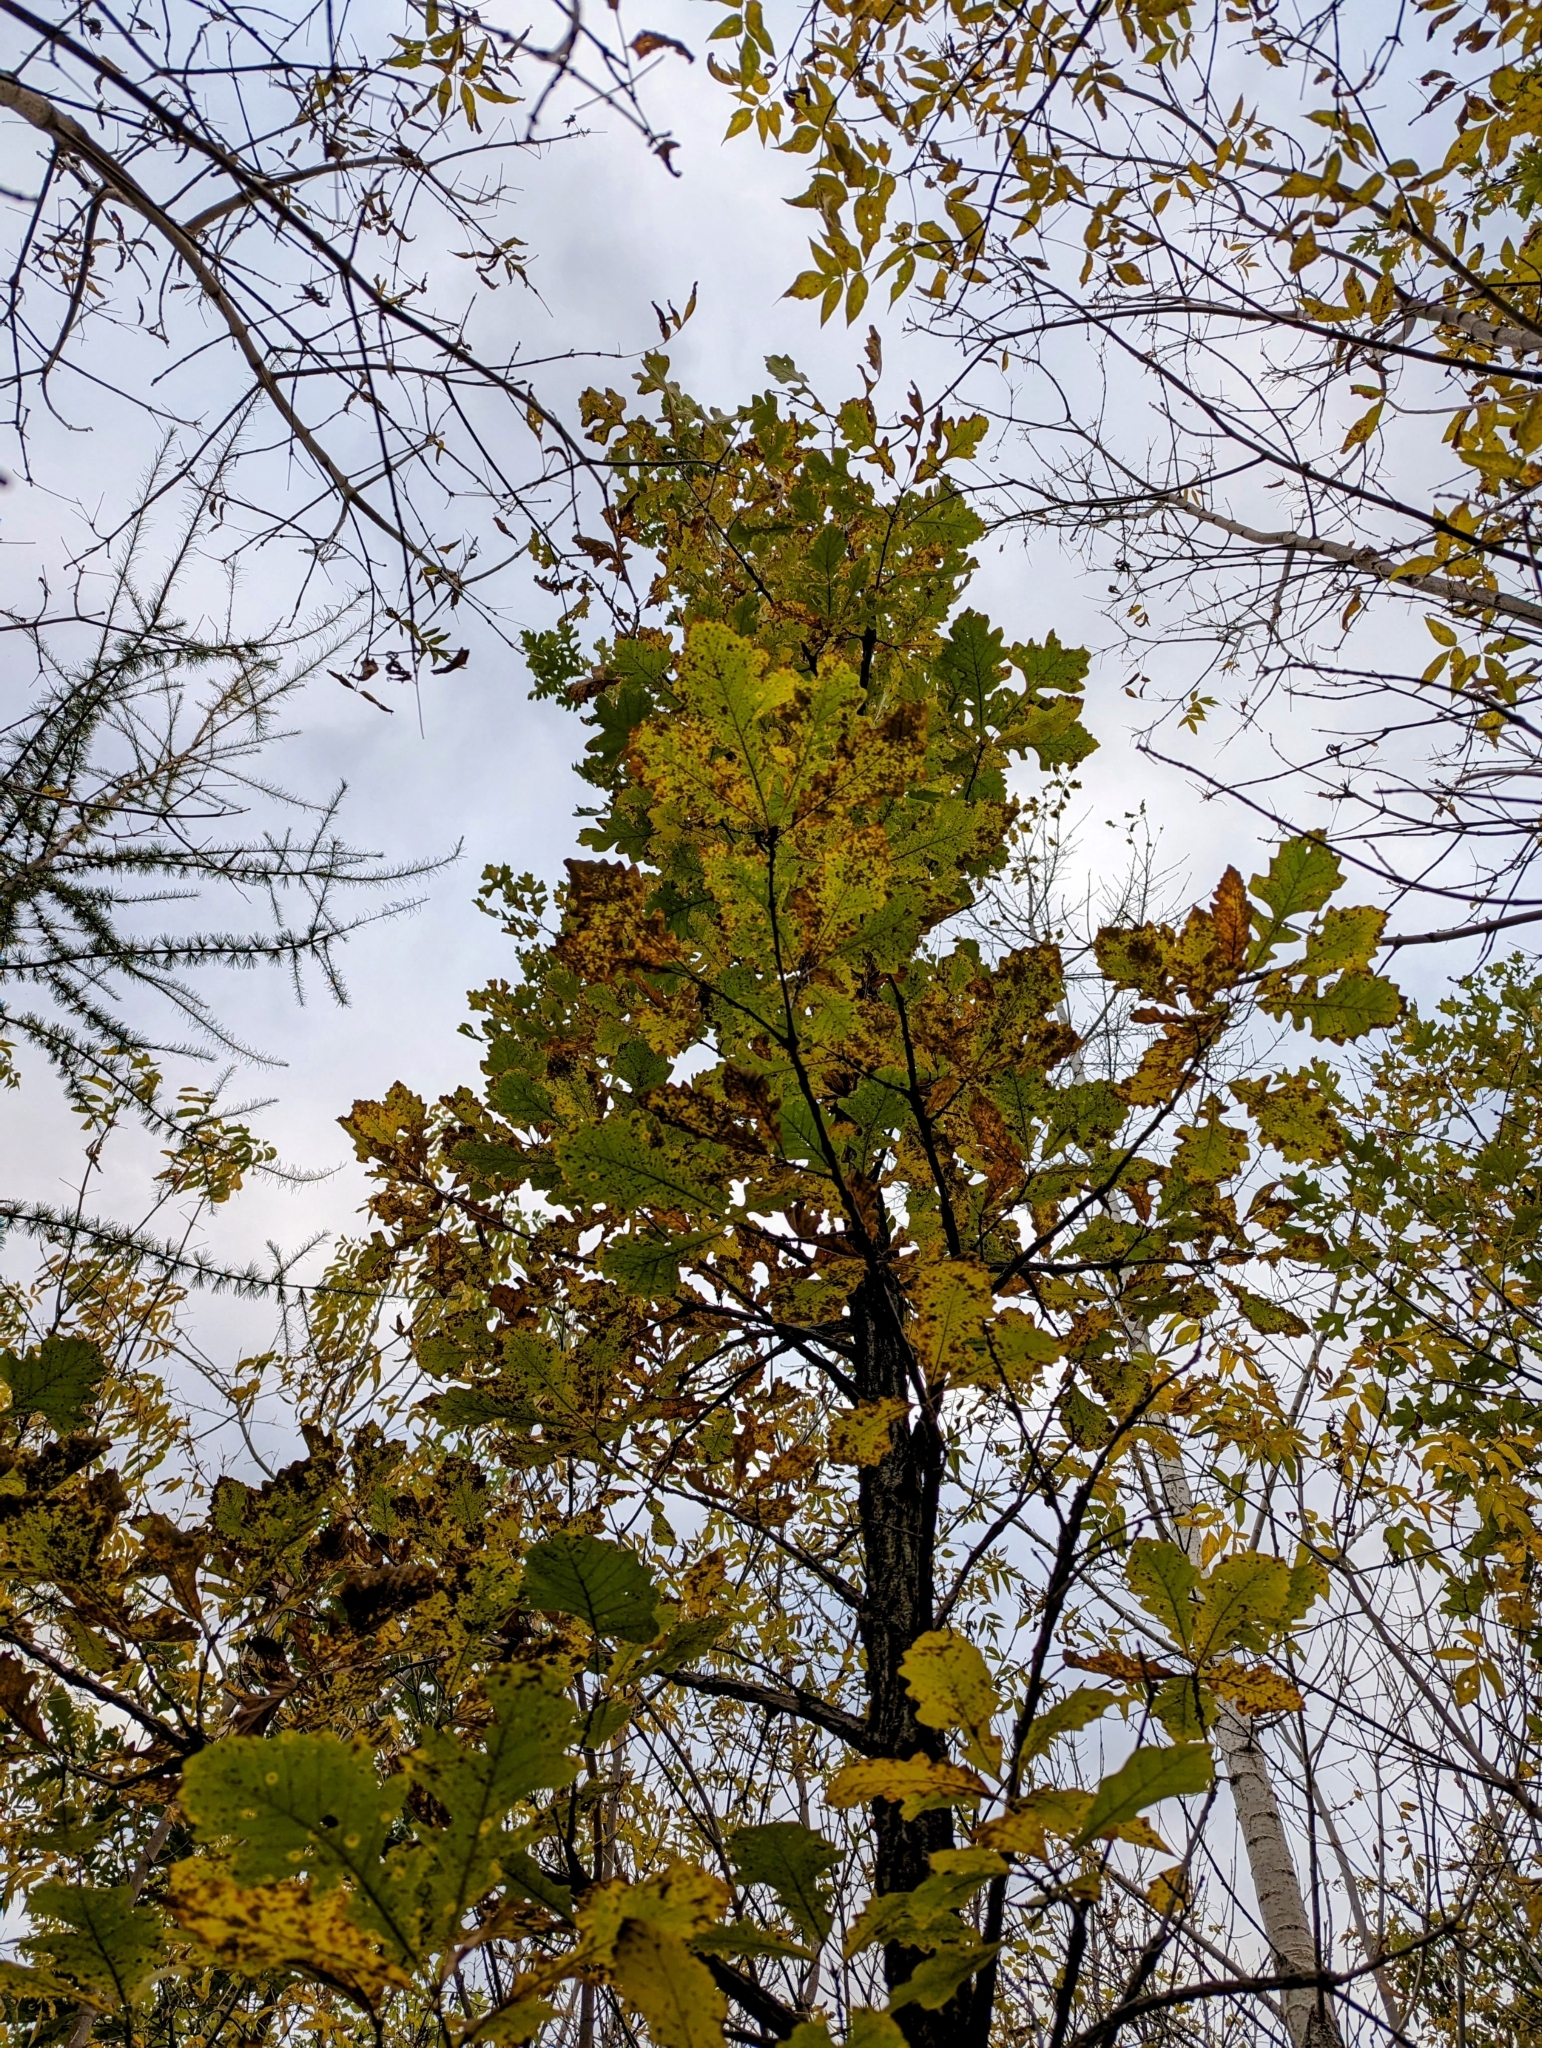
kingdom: Plantae
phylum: Tracheophyta
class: Magnoliopsida
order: Fagales
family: Fagaceae
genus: Quercus
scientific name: Quercus macrocarpa
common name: Bur oak
